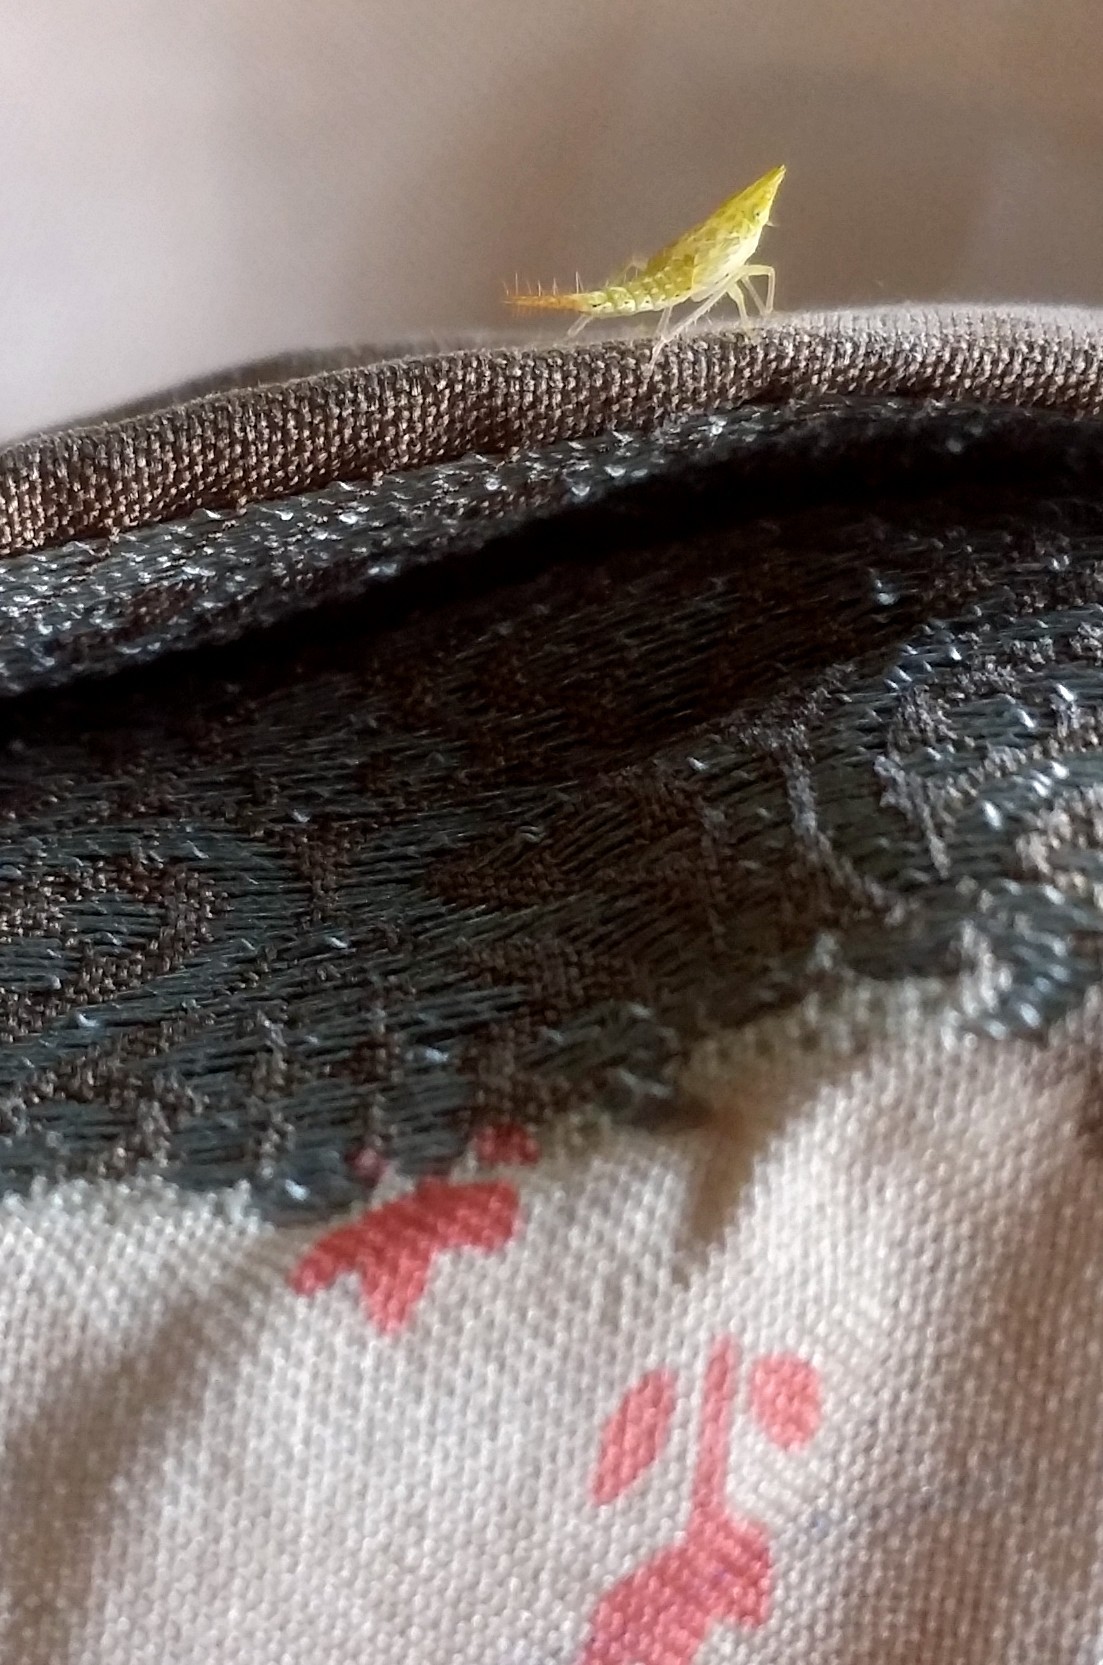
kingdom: Animalia
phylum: Arthropoda
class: Insecta
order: Hemiptera
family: Cicadellidae
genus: Japananus
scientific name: Japananus hyalinus
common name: The japanese maple leafhopper
